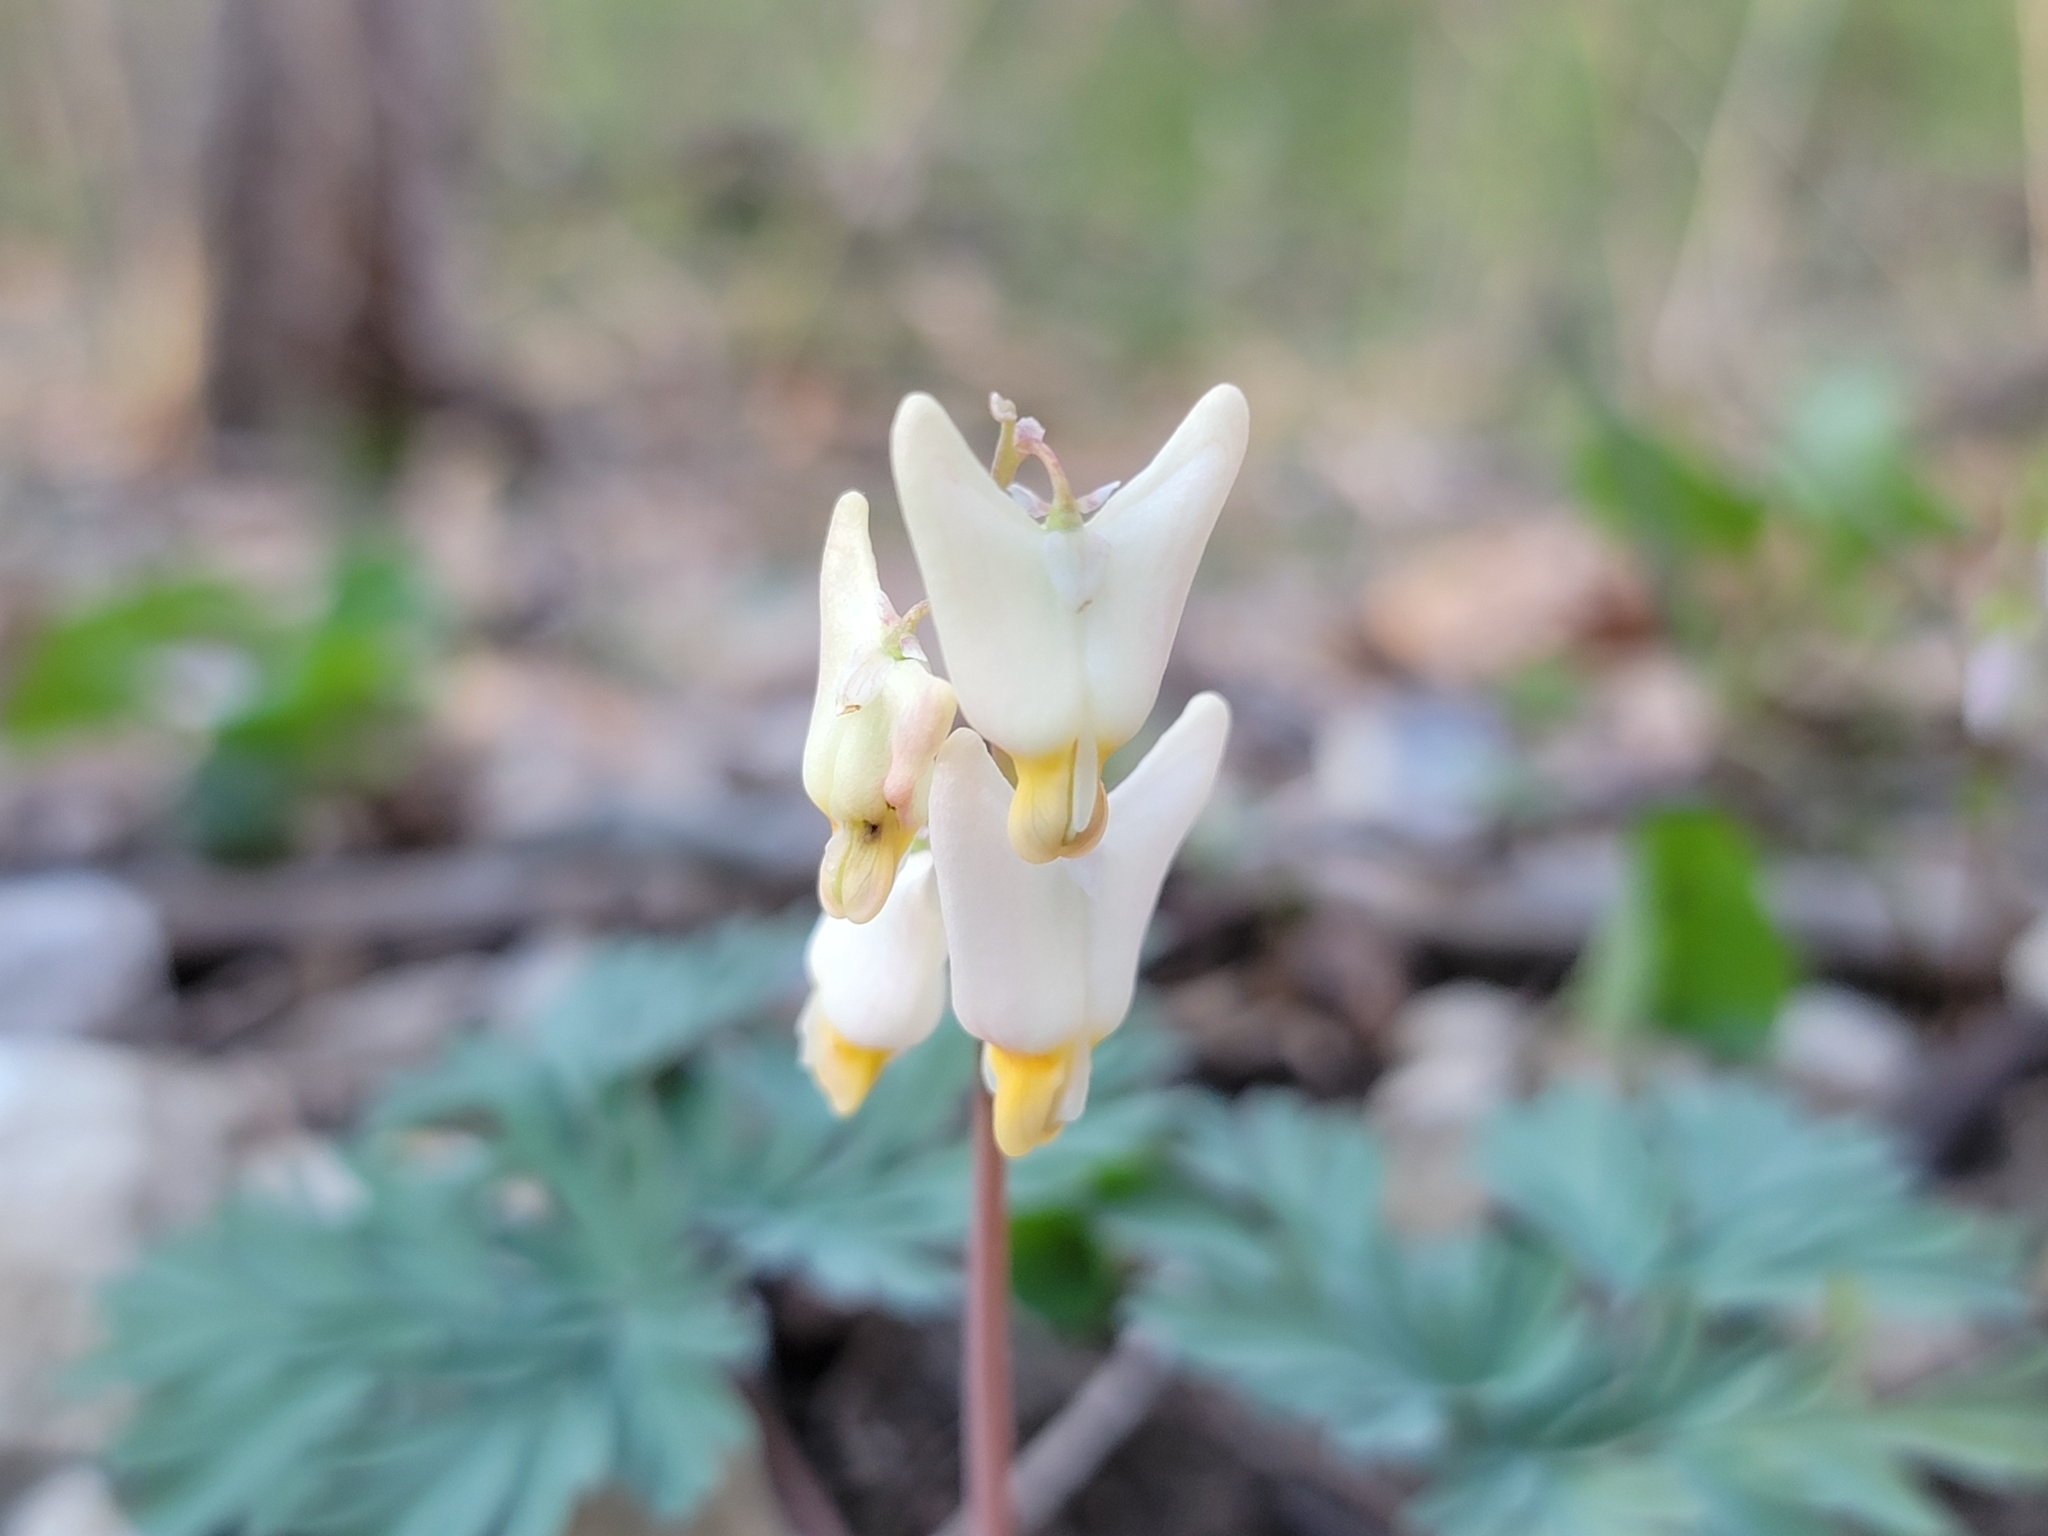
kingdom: Plantae
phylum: Tracheophyta
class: Magnoliopsida
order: Ranunculales
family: Papaveraceae
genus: Dicentra
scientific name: Dicentra cucullaria
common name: Dutchman's breeches
